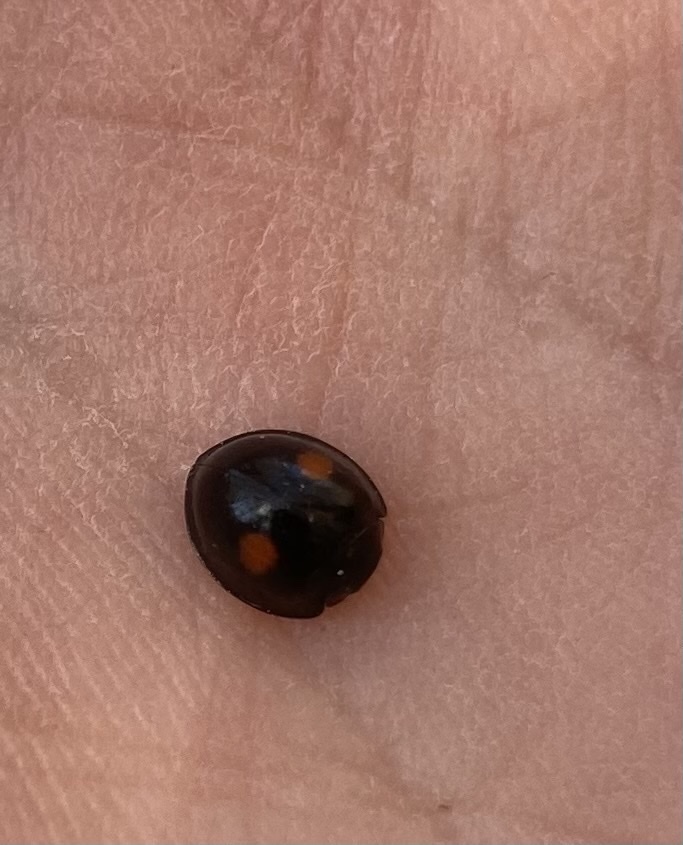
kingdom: Animalia
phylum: Arthropoda
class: Insecta
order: Coleoptera
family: Coccinellidae
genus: Chilocorus
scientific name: Chilocorus stigma
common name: Twicestabbed lady beetle
